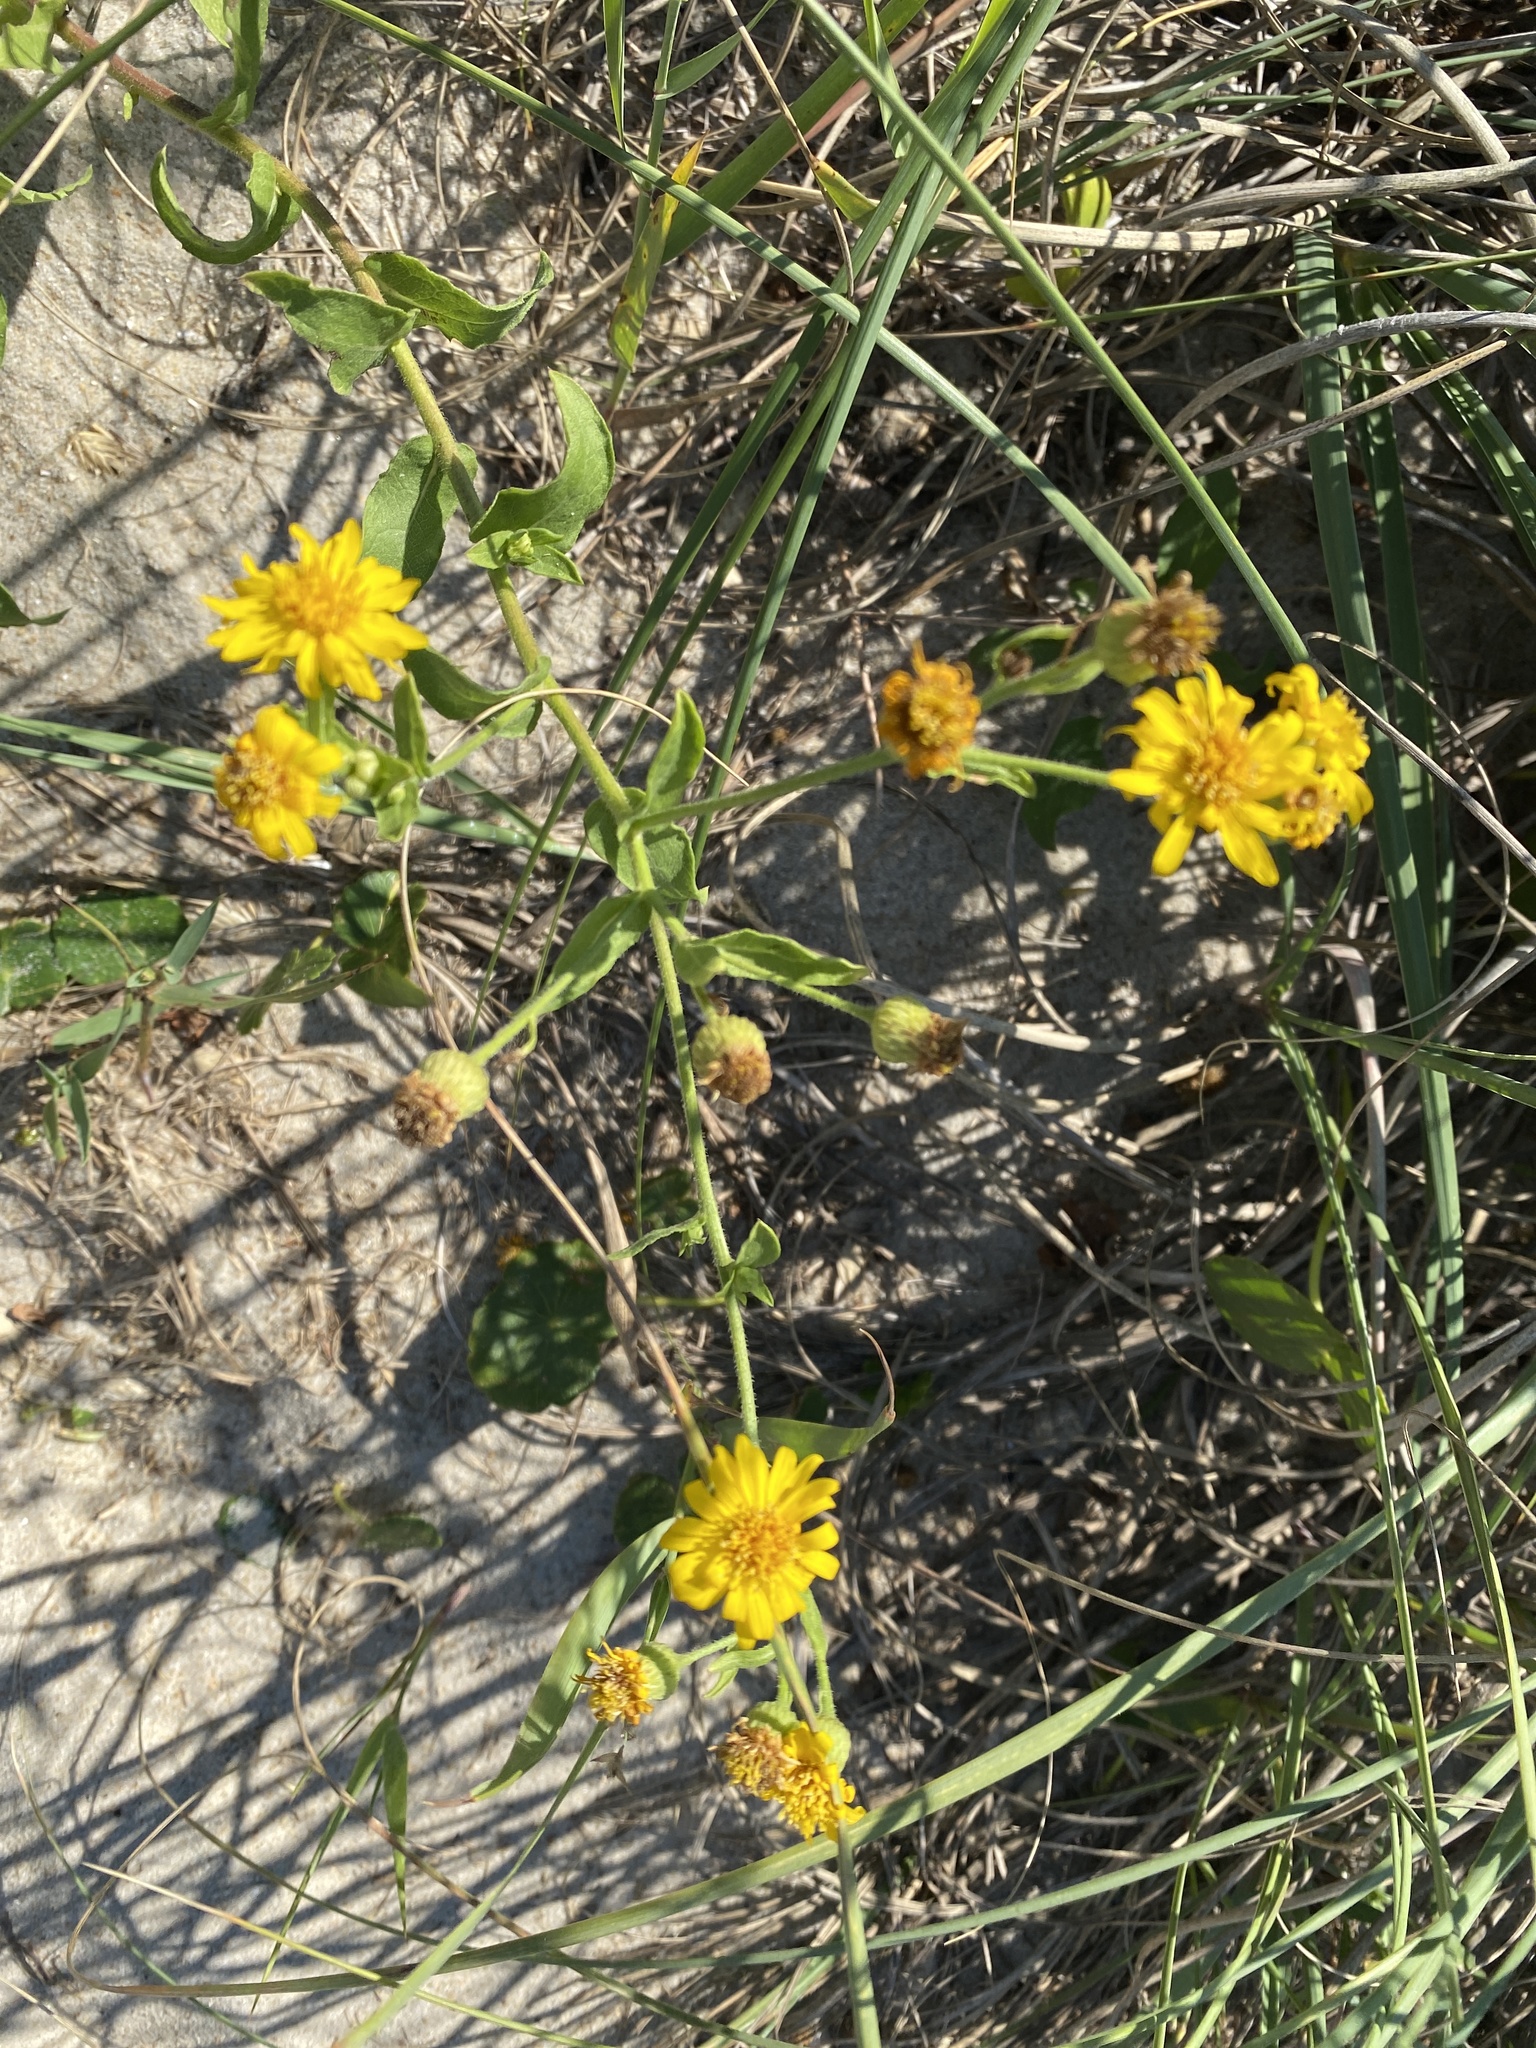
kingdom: Plantae
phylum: Tracheophyta
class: Magnoliopsida
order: Asterales
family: Asteraceae
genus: Heterotheca
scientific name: Heterotheca subaxillaris
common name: Camphorweed
